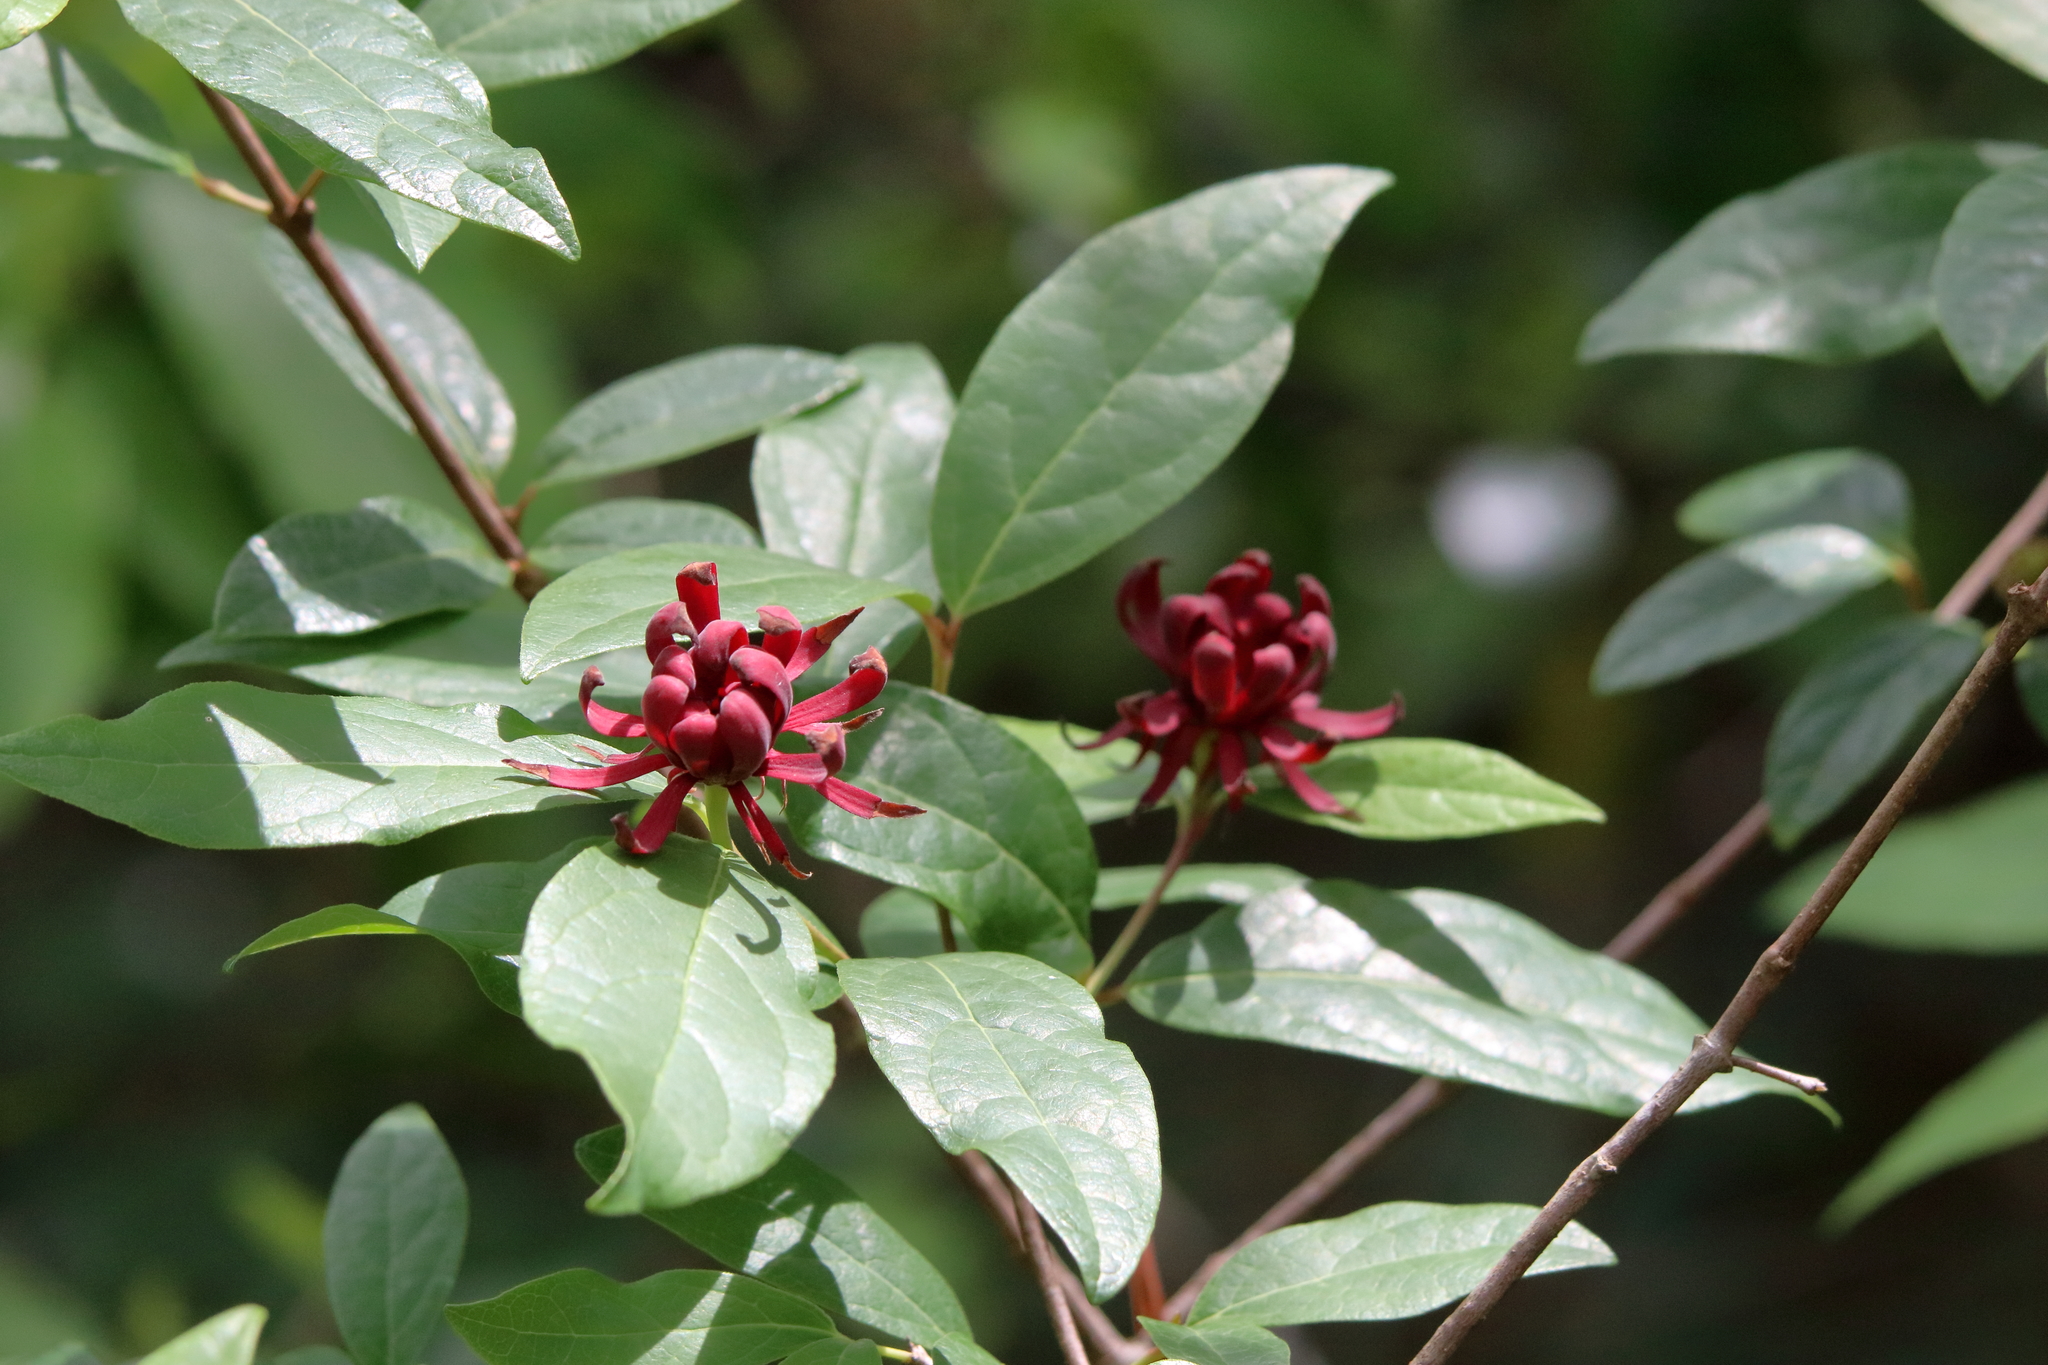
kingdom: Plantae
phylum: Tracheophyta
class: Magnoliopsida
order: Laurales
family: Calycanthaceae
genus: Calycanthus
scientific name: Calycanthus floridus
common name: Carolina-allspice
